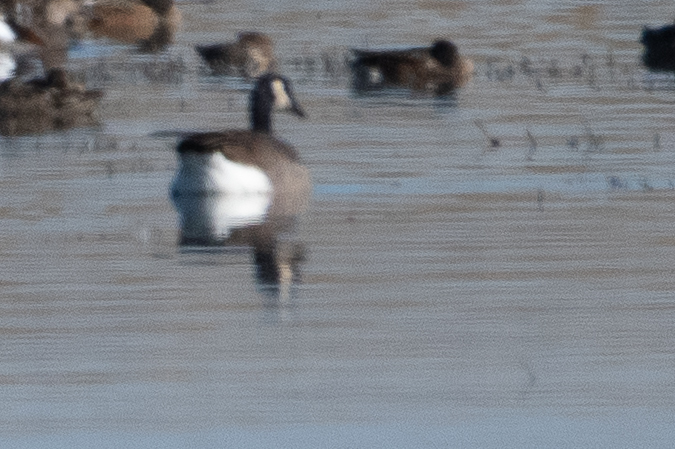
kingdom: Animalia
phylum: Chordata
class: Aves
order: Anseriformes
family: Anatidae
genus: Branta
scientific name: Branta canadensis
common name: Canada goose
